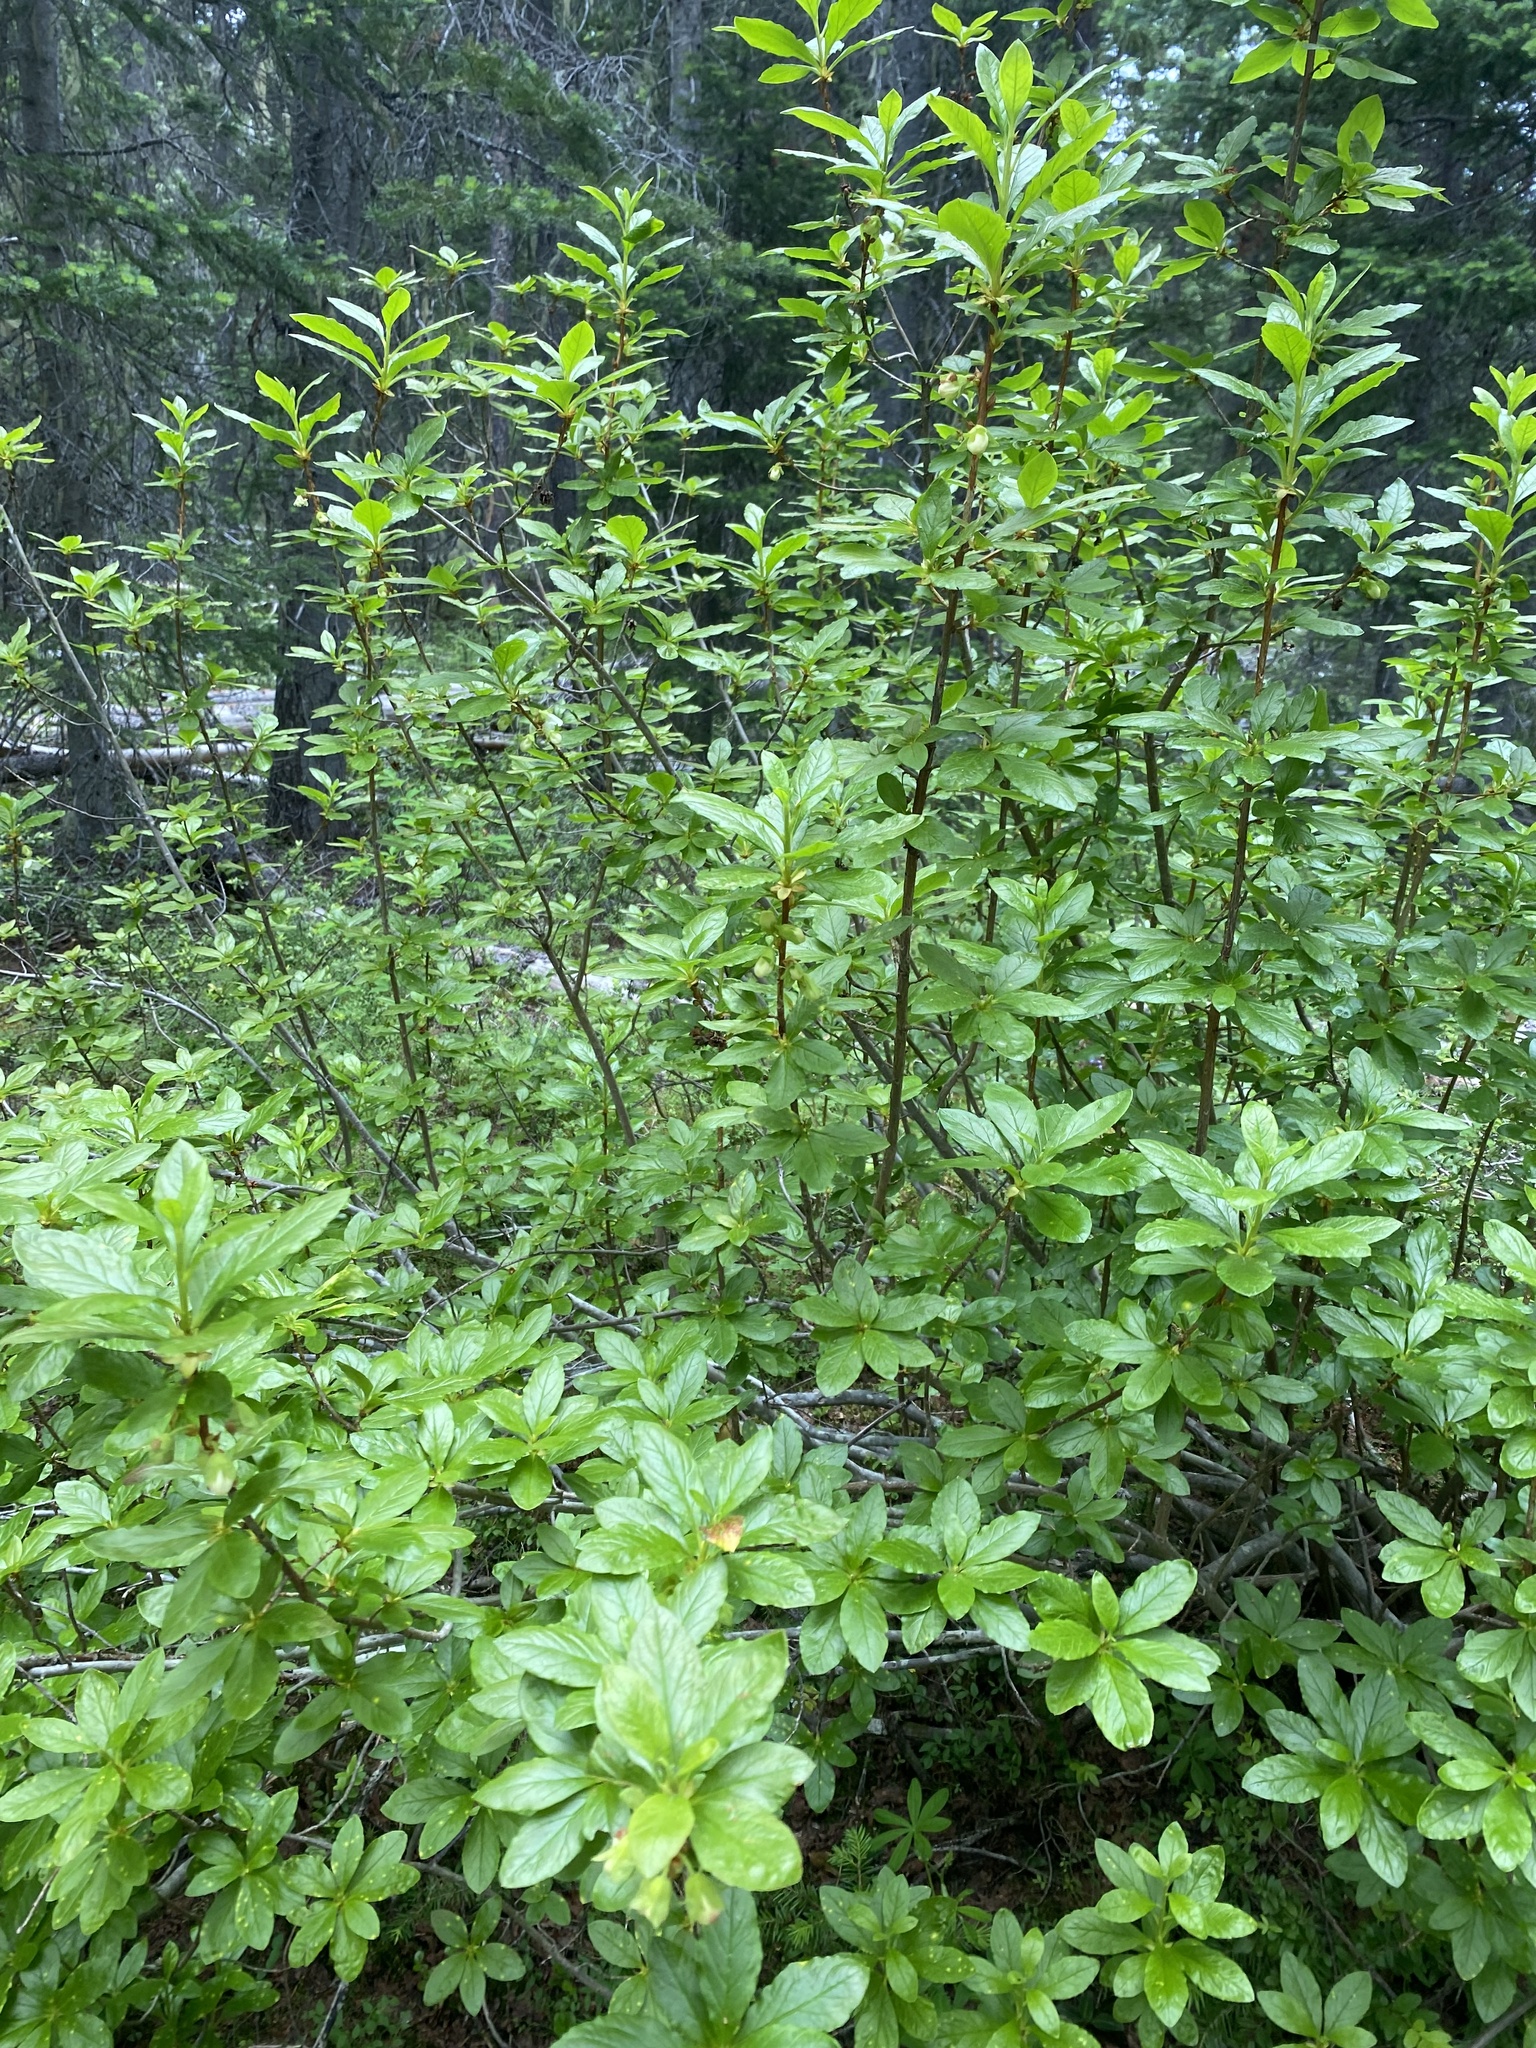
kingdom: Plantae
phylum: Tracheophyta
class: Magnoliopsida
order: Ericales
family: Ericaceae
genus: Rhododendron
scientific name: Rhododendron albiflorum
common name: White rhododendron
